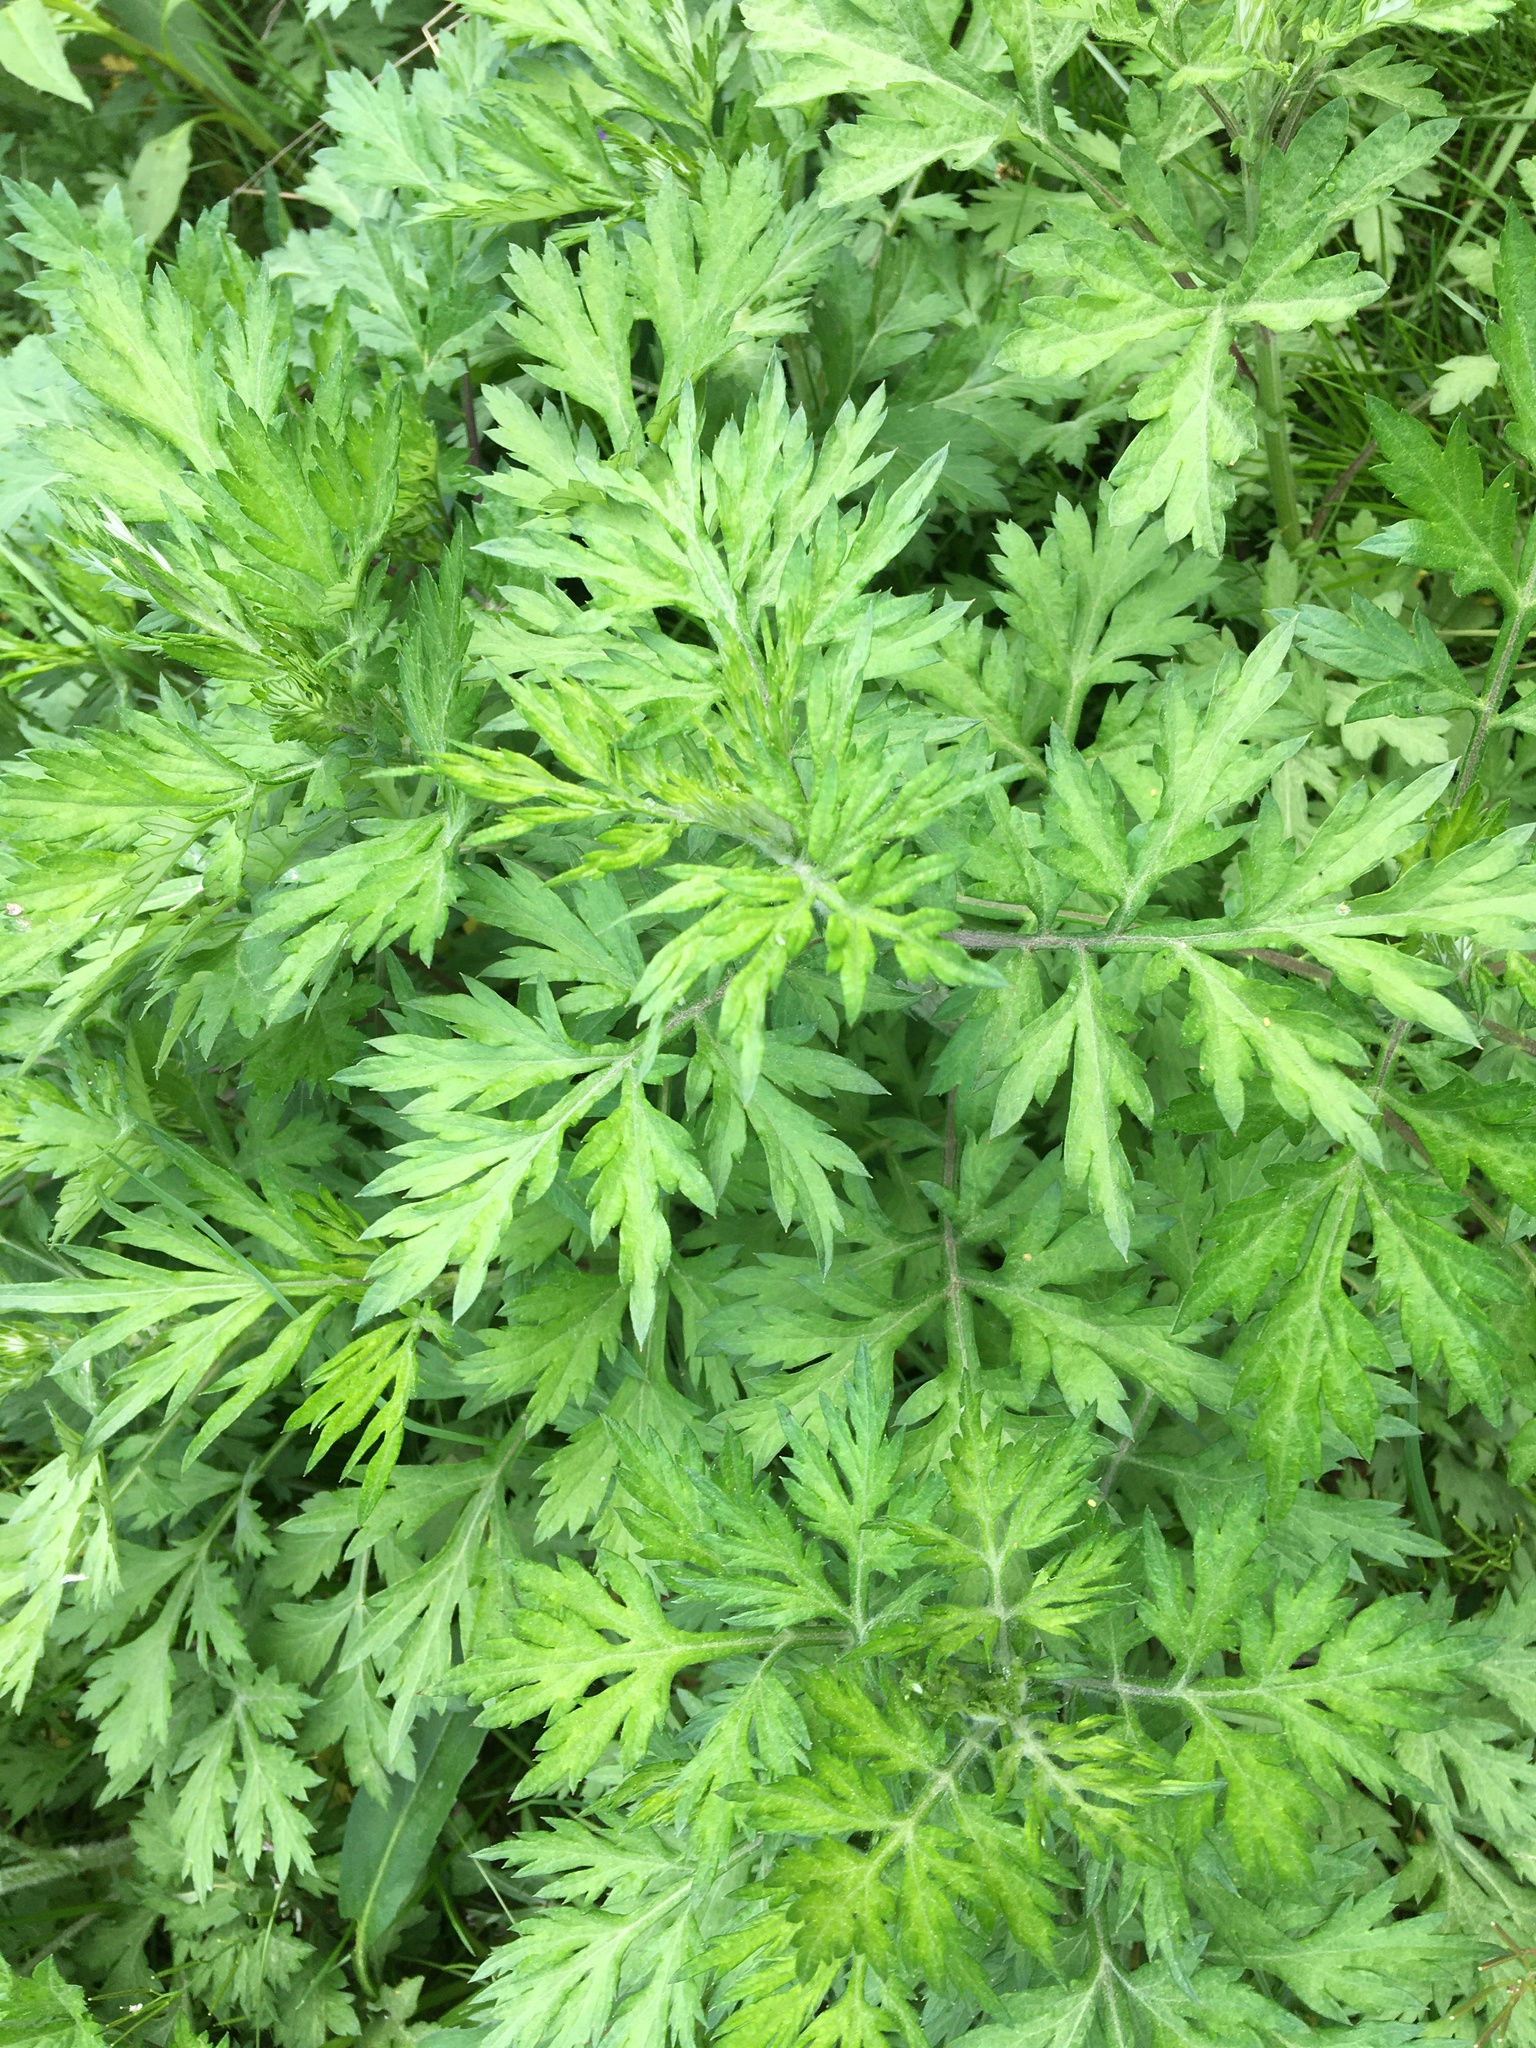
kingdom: Plantae
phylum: Tracheophyta
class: Magnoliopsida
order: Asterales
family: Asteraceae
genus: Artemisia
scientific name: Artemisia vulgaris
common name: Mugwort
